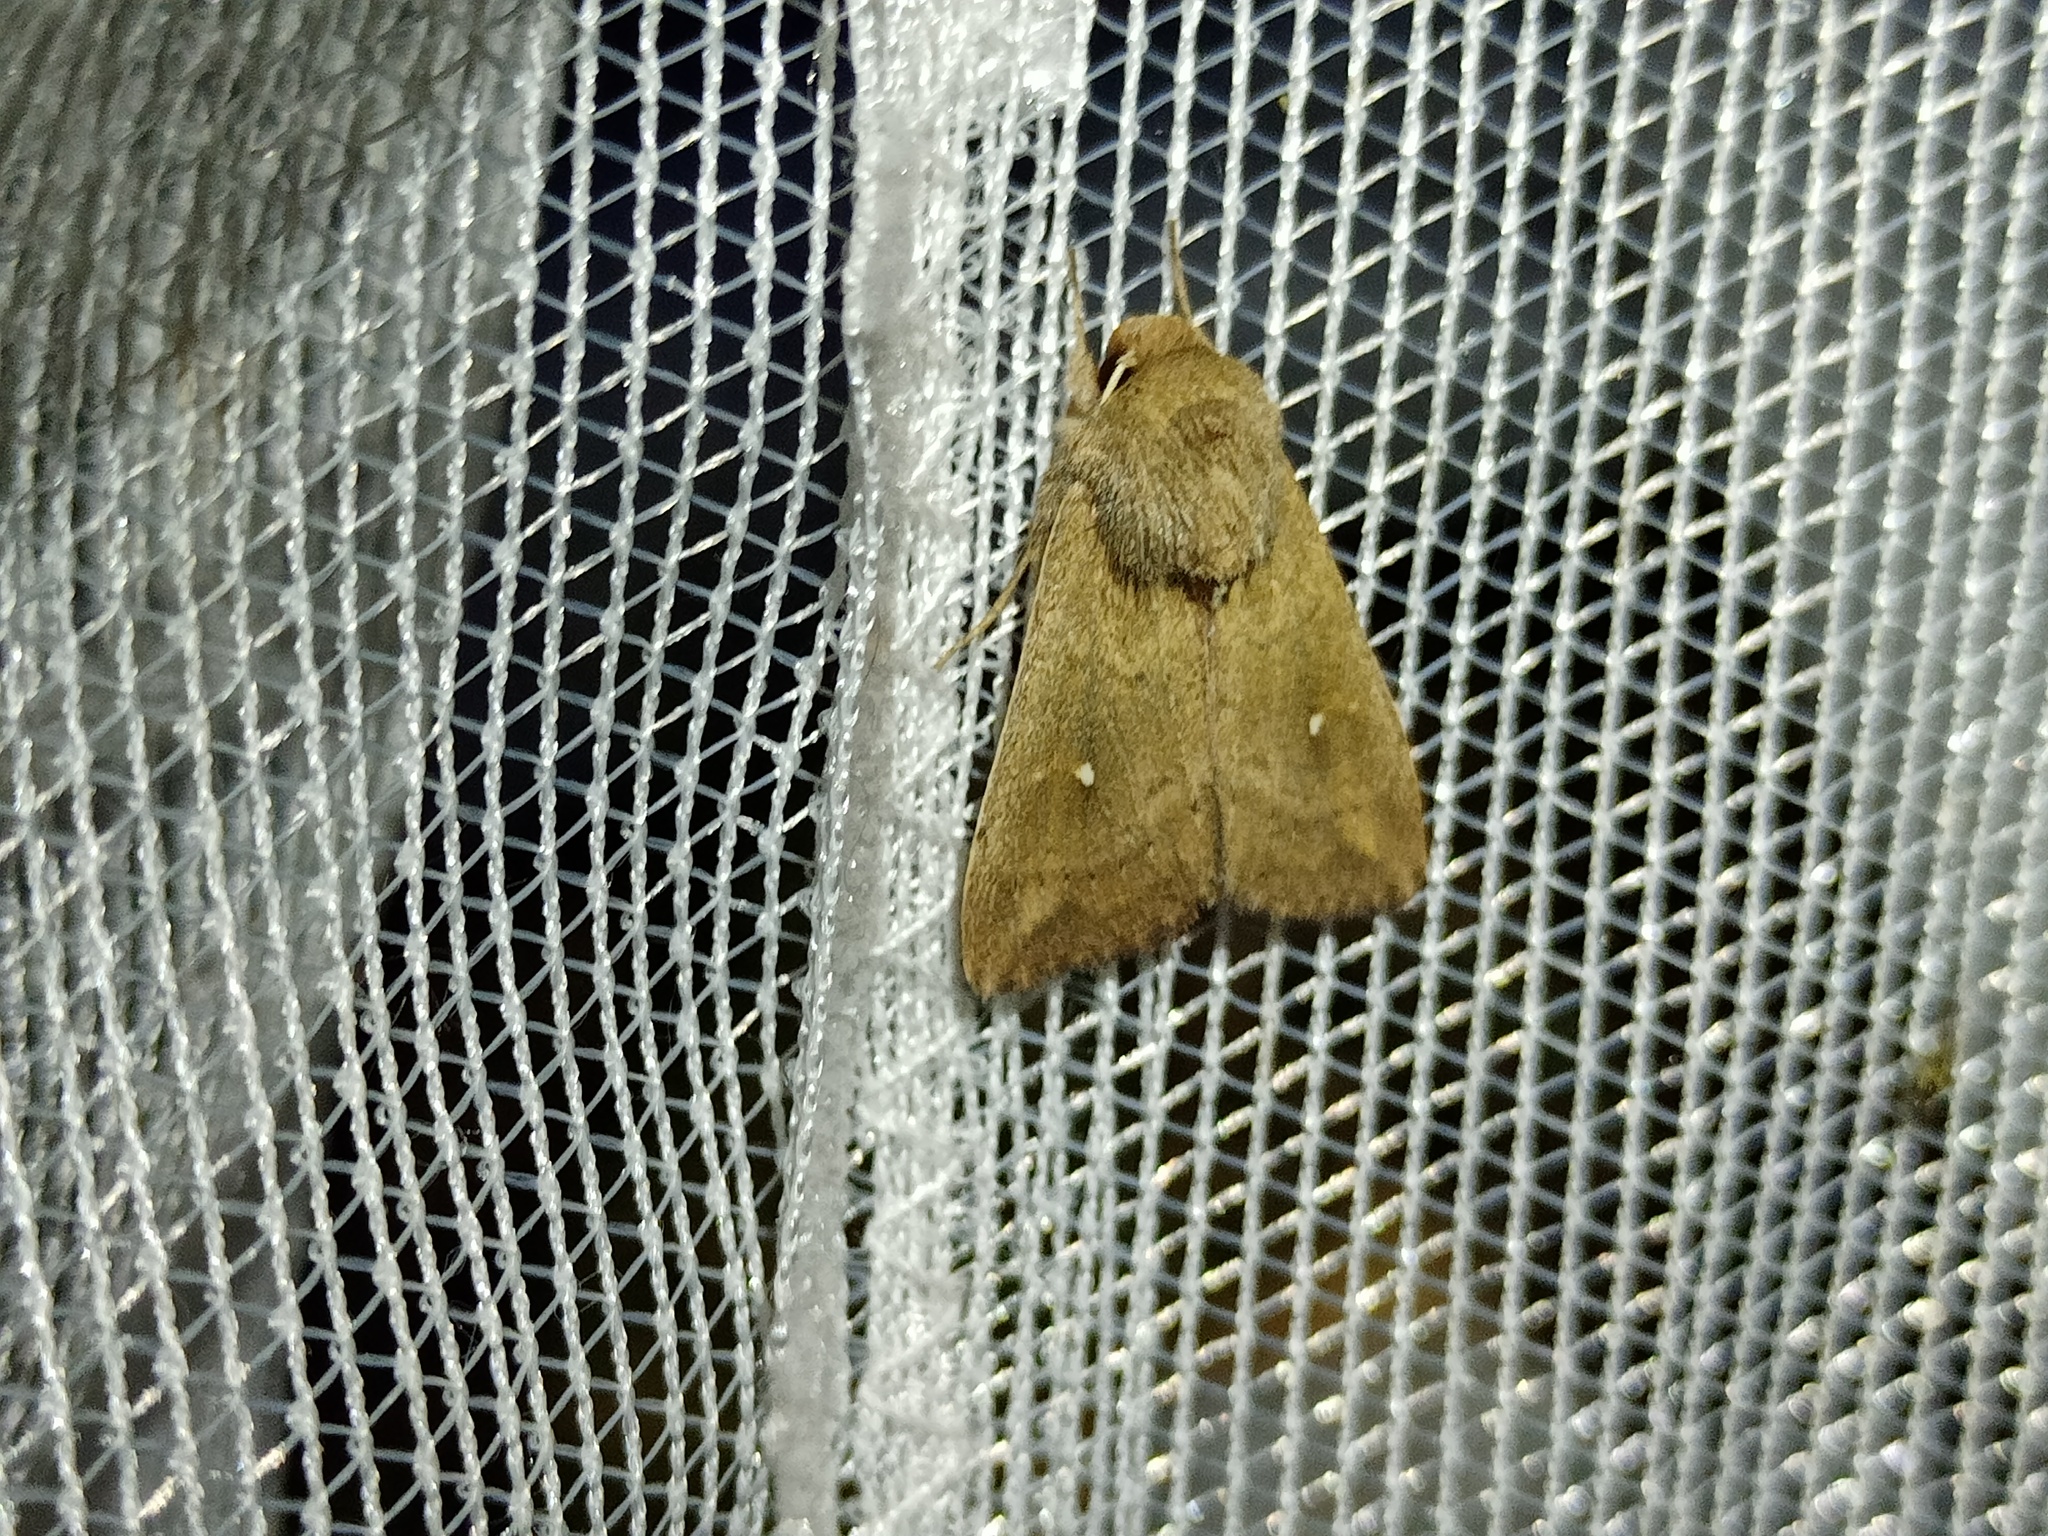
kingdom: Animalia
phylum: Arthropoda
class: Insecta
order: Lepidoptera
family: Noctuidae
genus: Mythimna
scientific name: Mythimna albipuncta
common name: White-point
